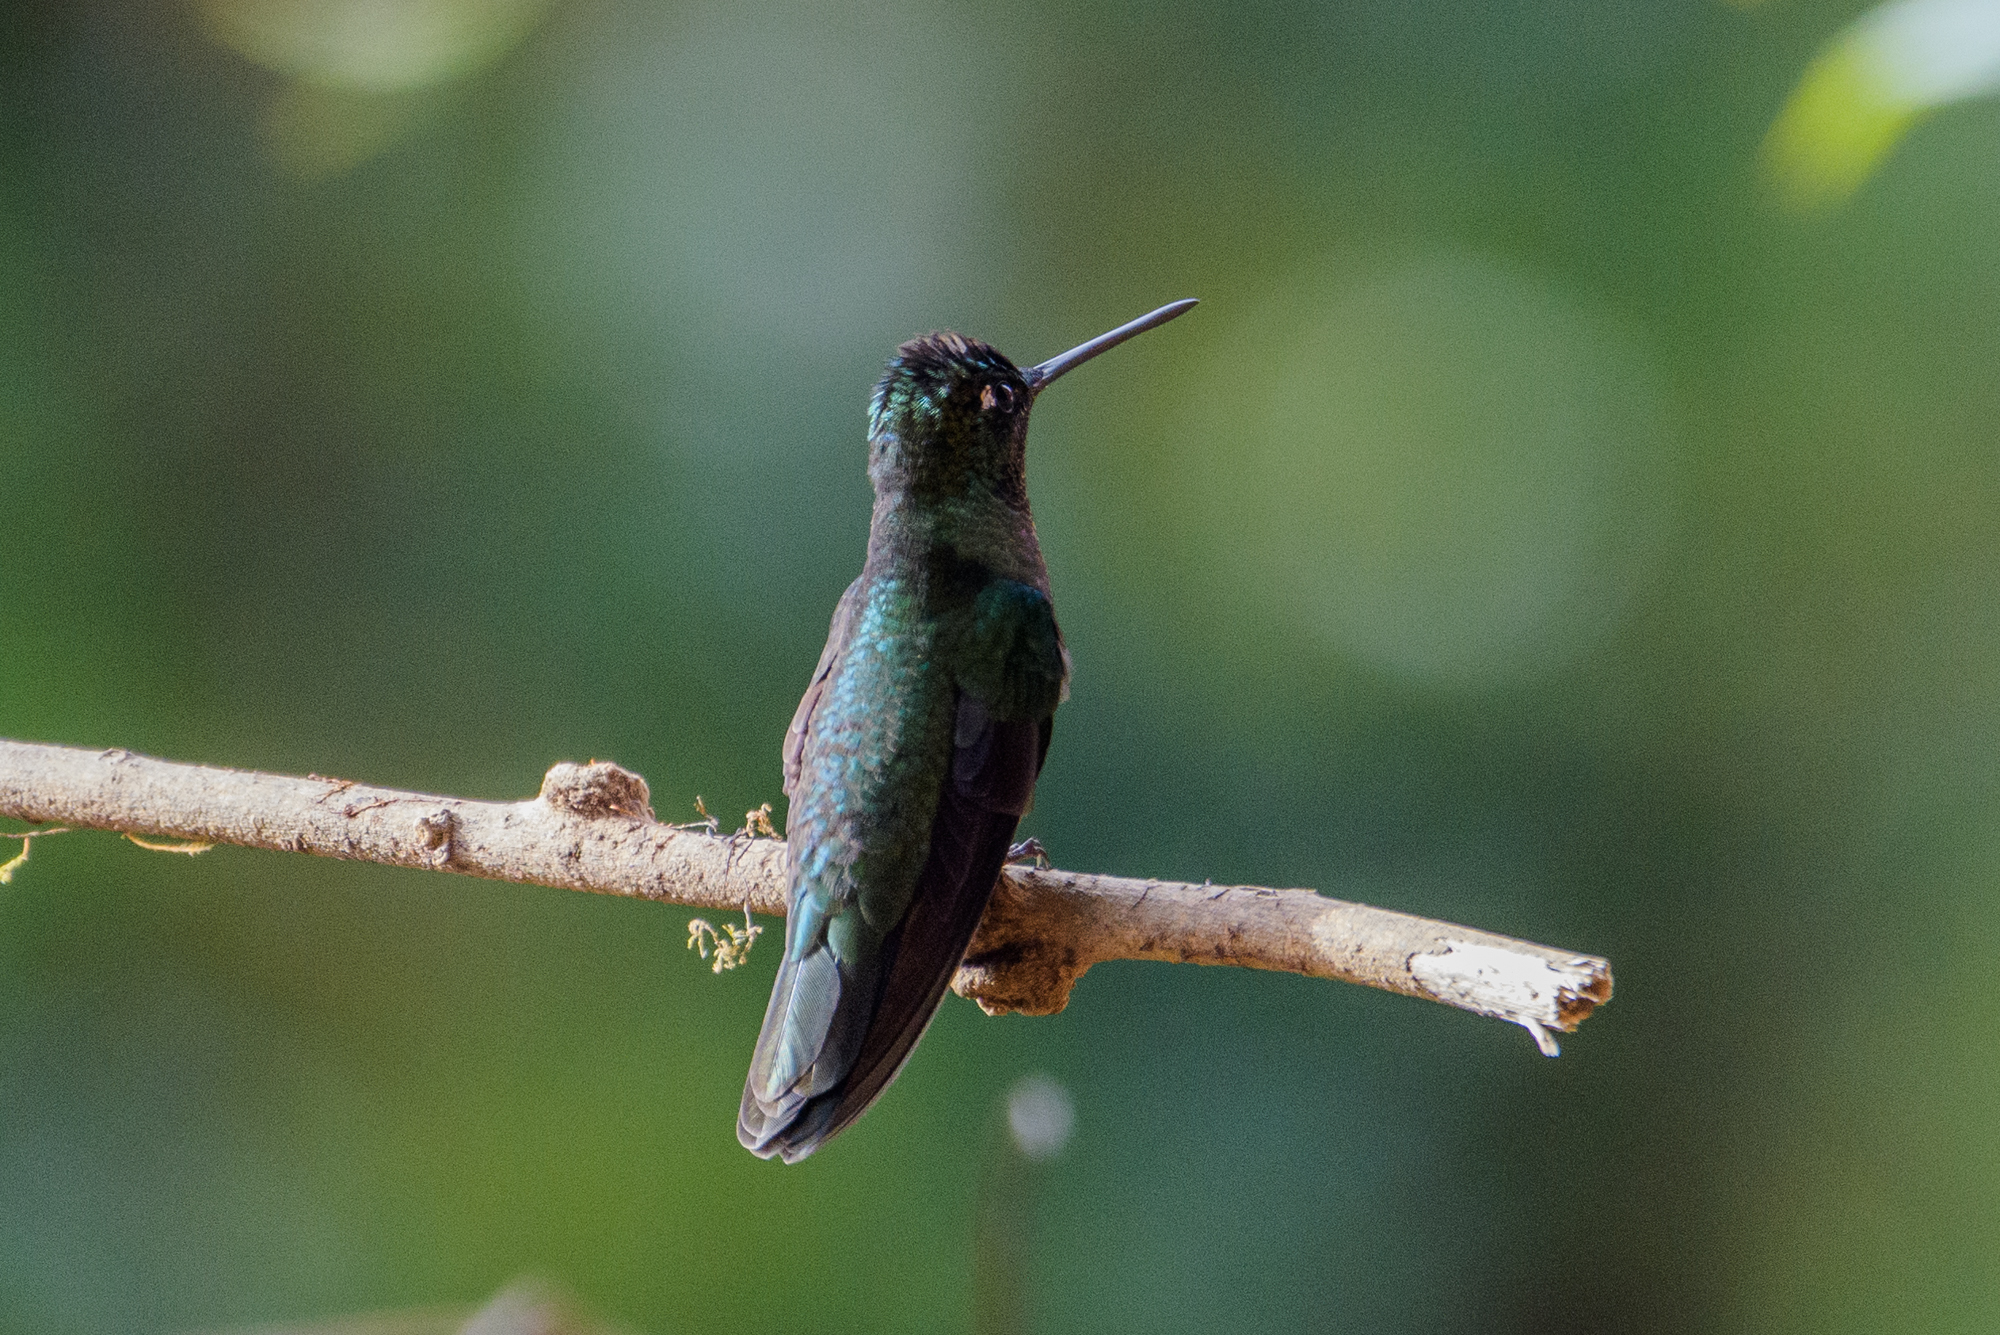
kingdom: Animalia
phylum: Chordata
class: Aves
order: Apodiformes
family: Trochilidae
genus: Eugenes
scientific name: Eugenes spectabilis
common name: Talamanca hummingbird
